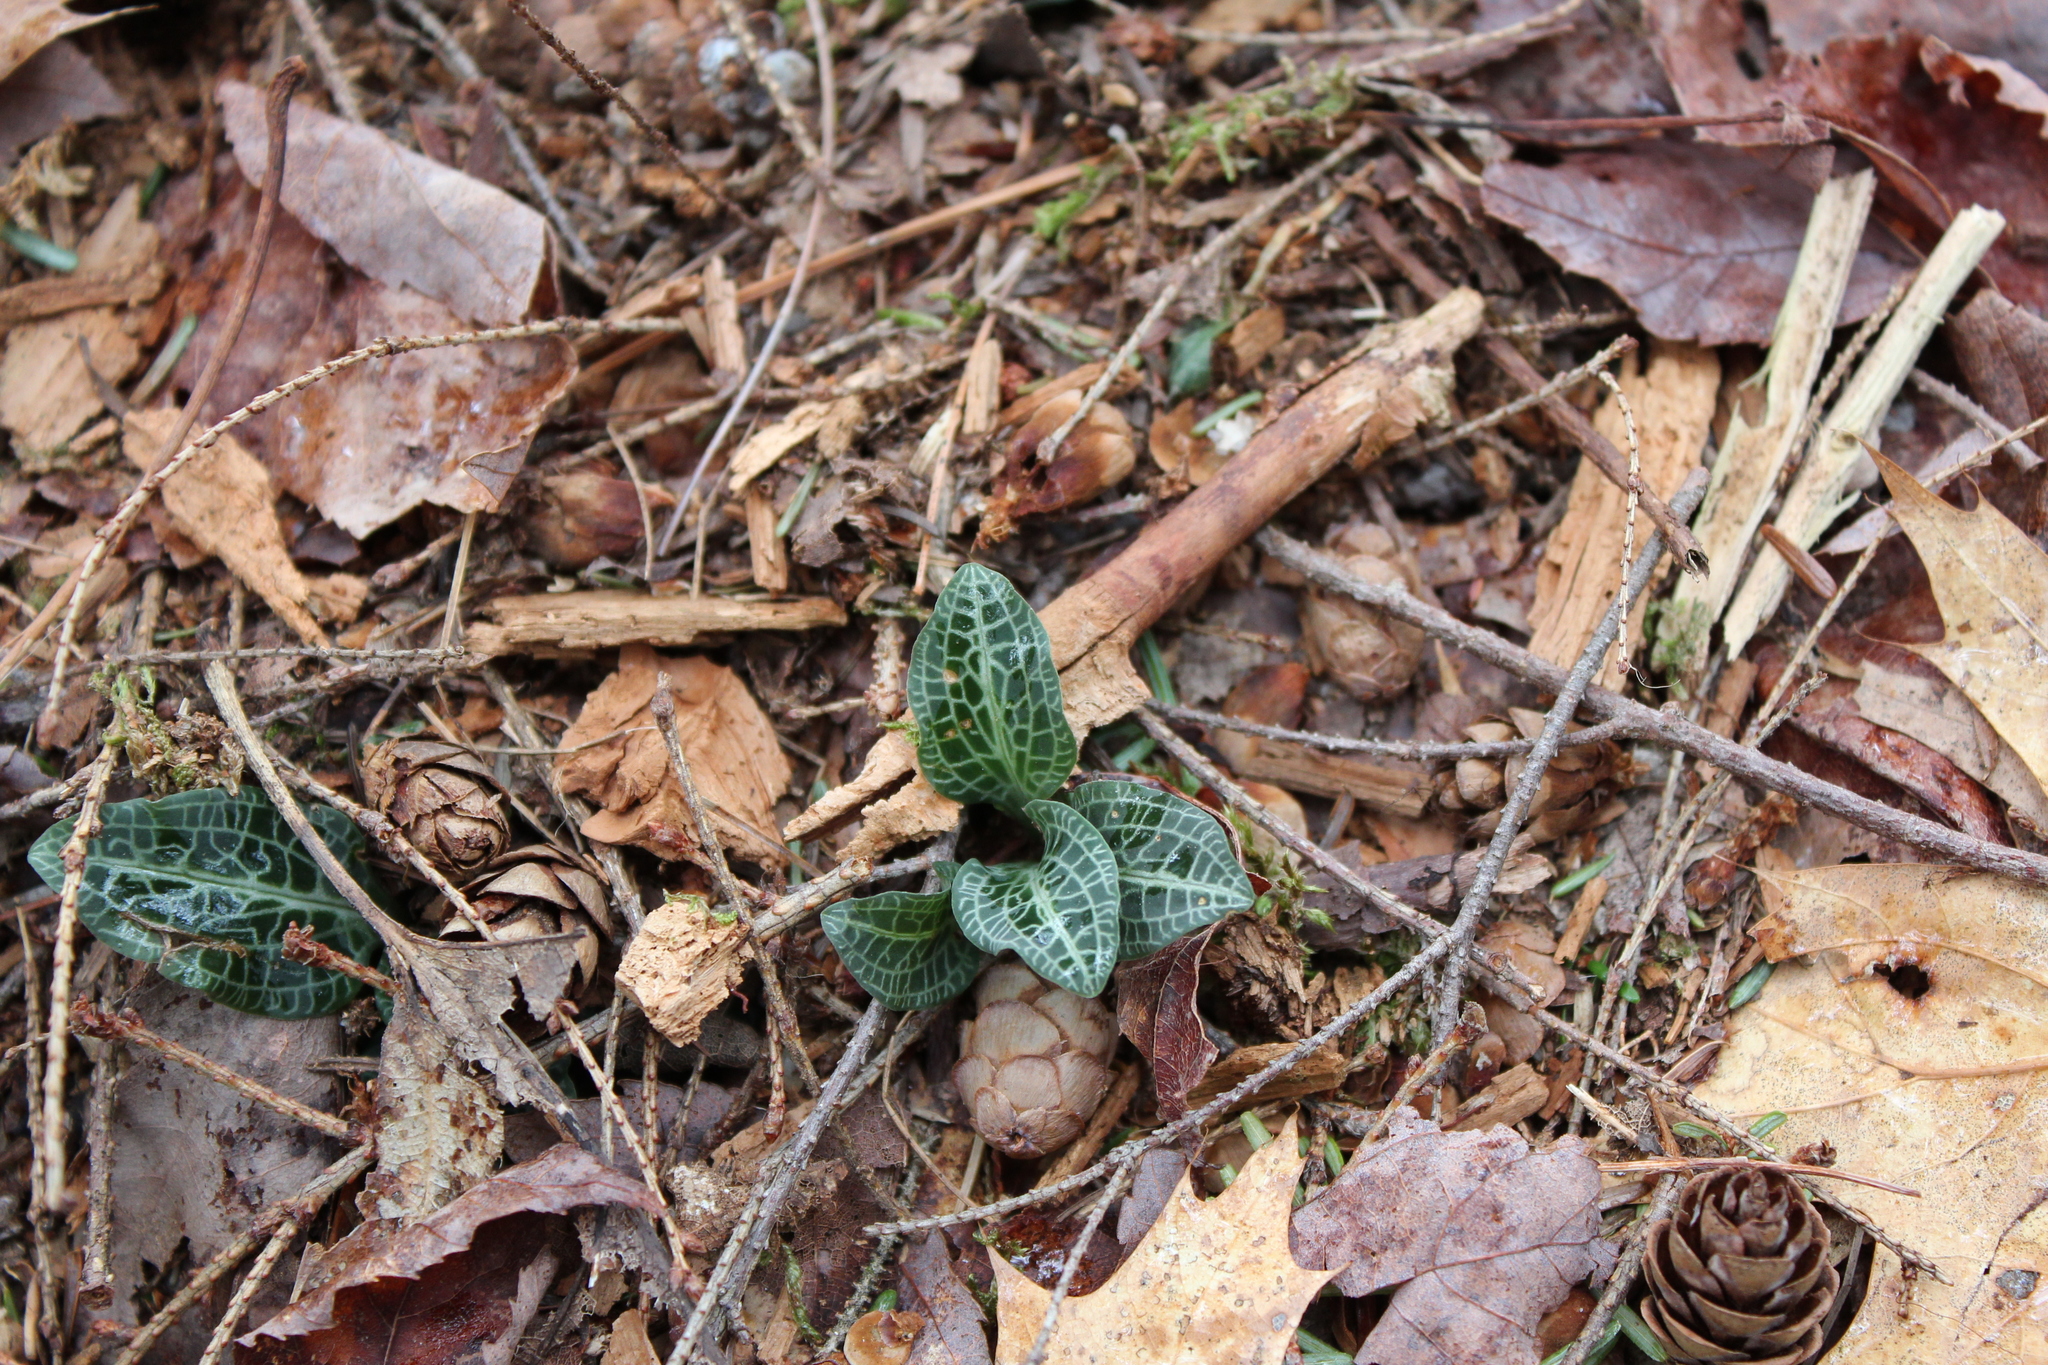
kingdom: Plantae
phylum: Tracheophyta
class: Liliopsida
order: Asparagales
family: Orchidaceae
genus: Goodyera
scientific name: Goodyera pubescens
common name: Downy rattlesnake-plantain
